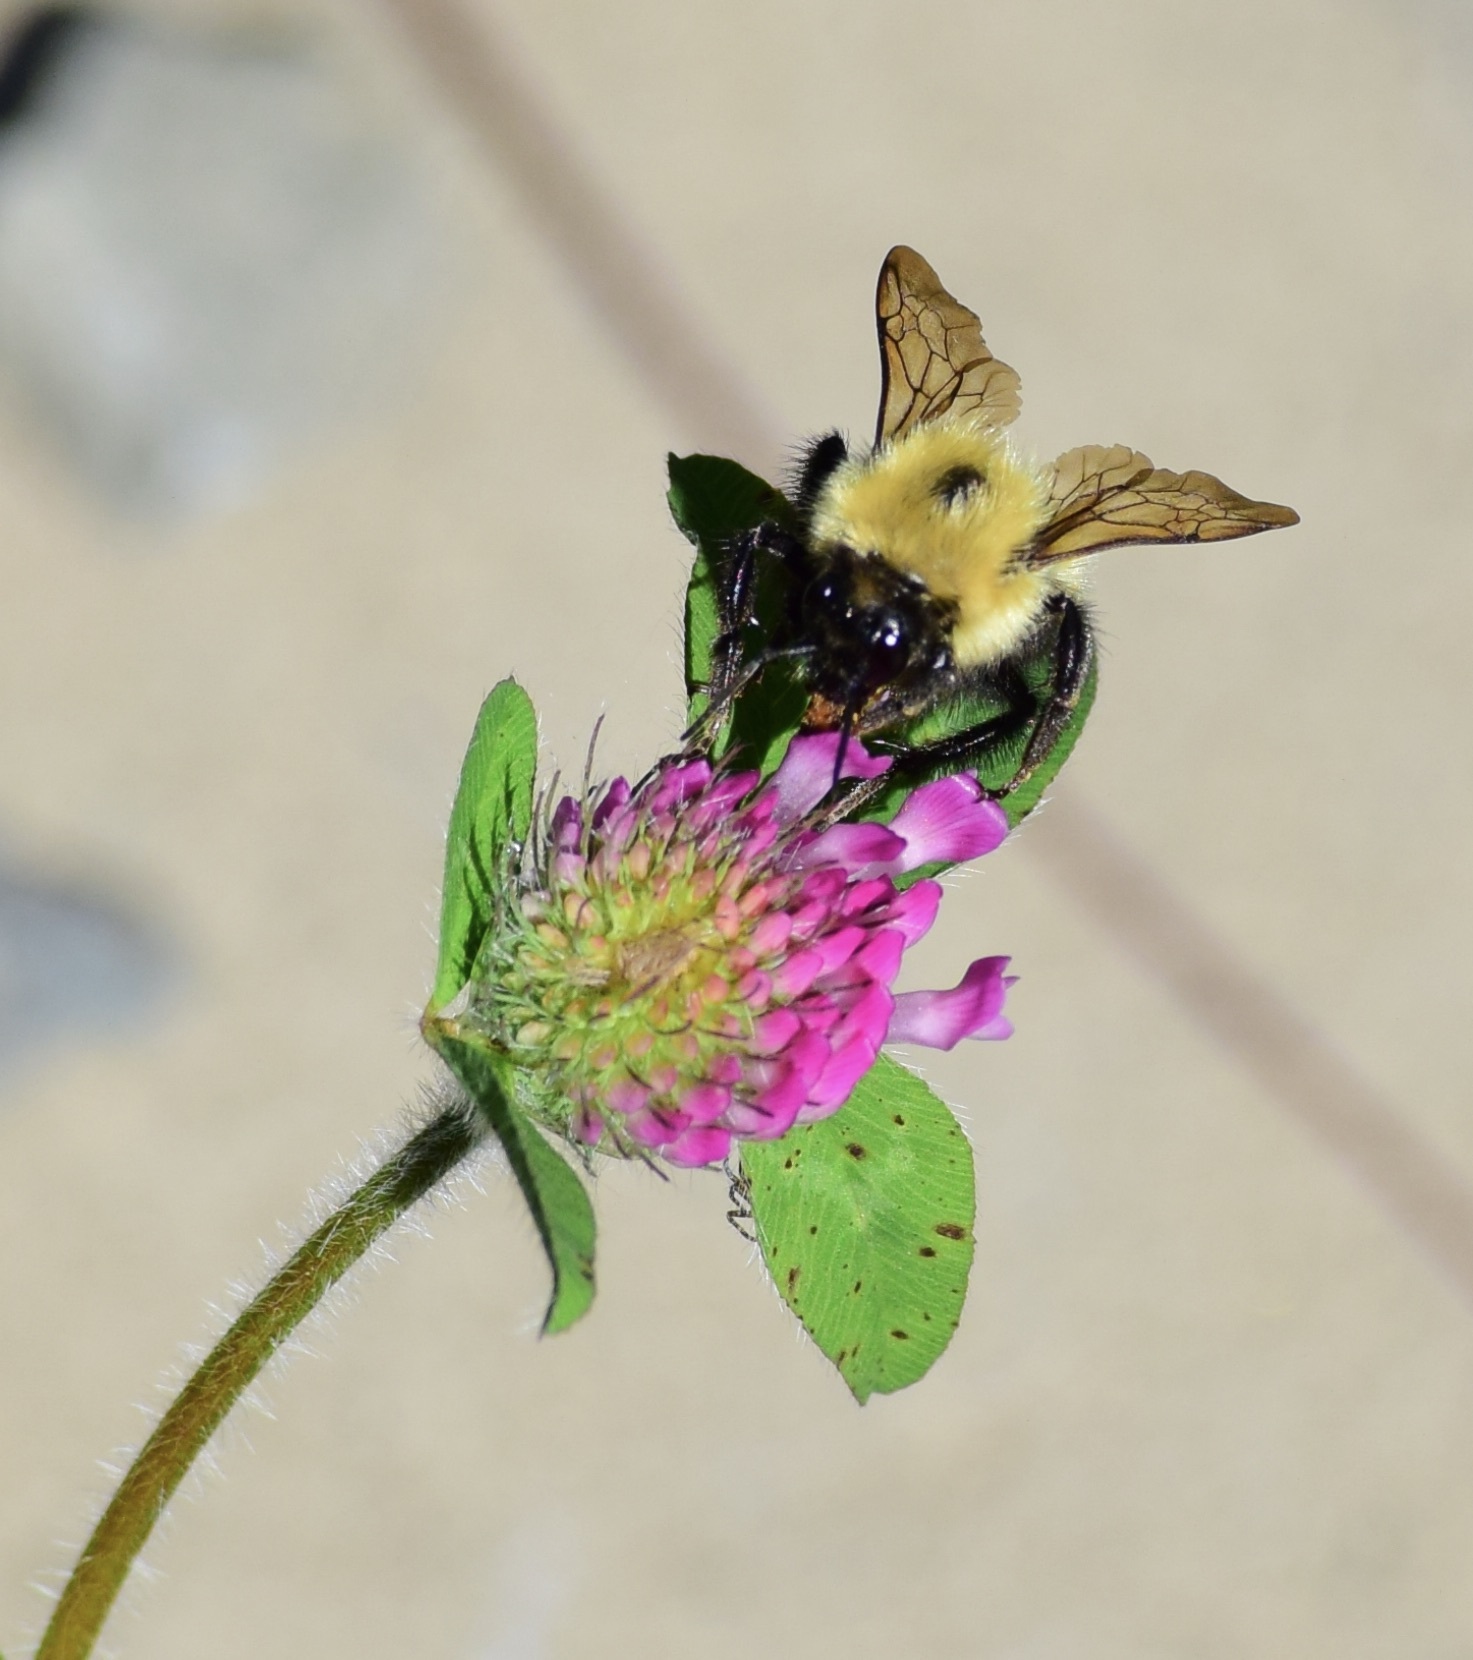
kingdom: Animalia
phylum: Arthropoda
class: Insecta
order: Hymenoptera
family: Apidae
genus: Pyrobombus
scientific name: Pyrobombus
